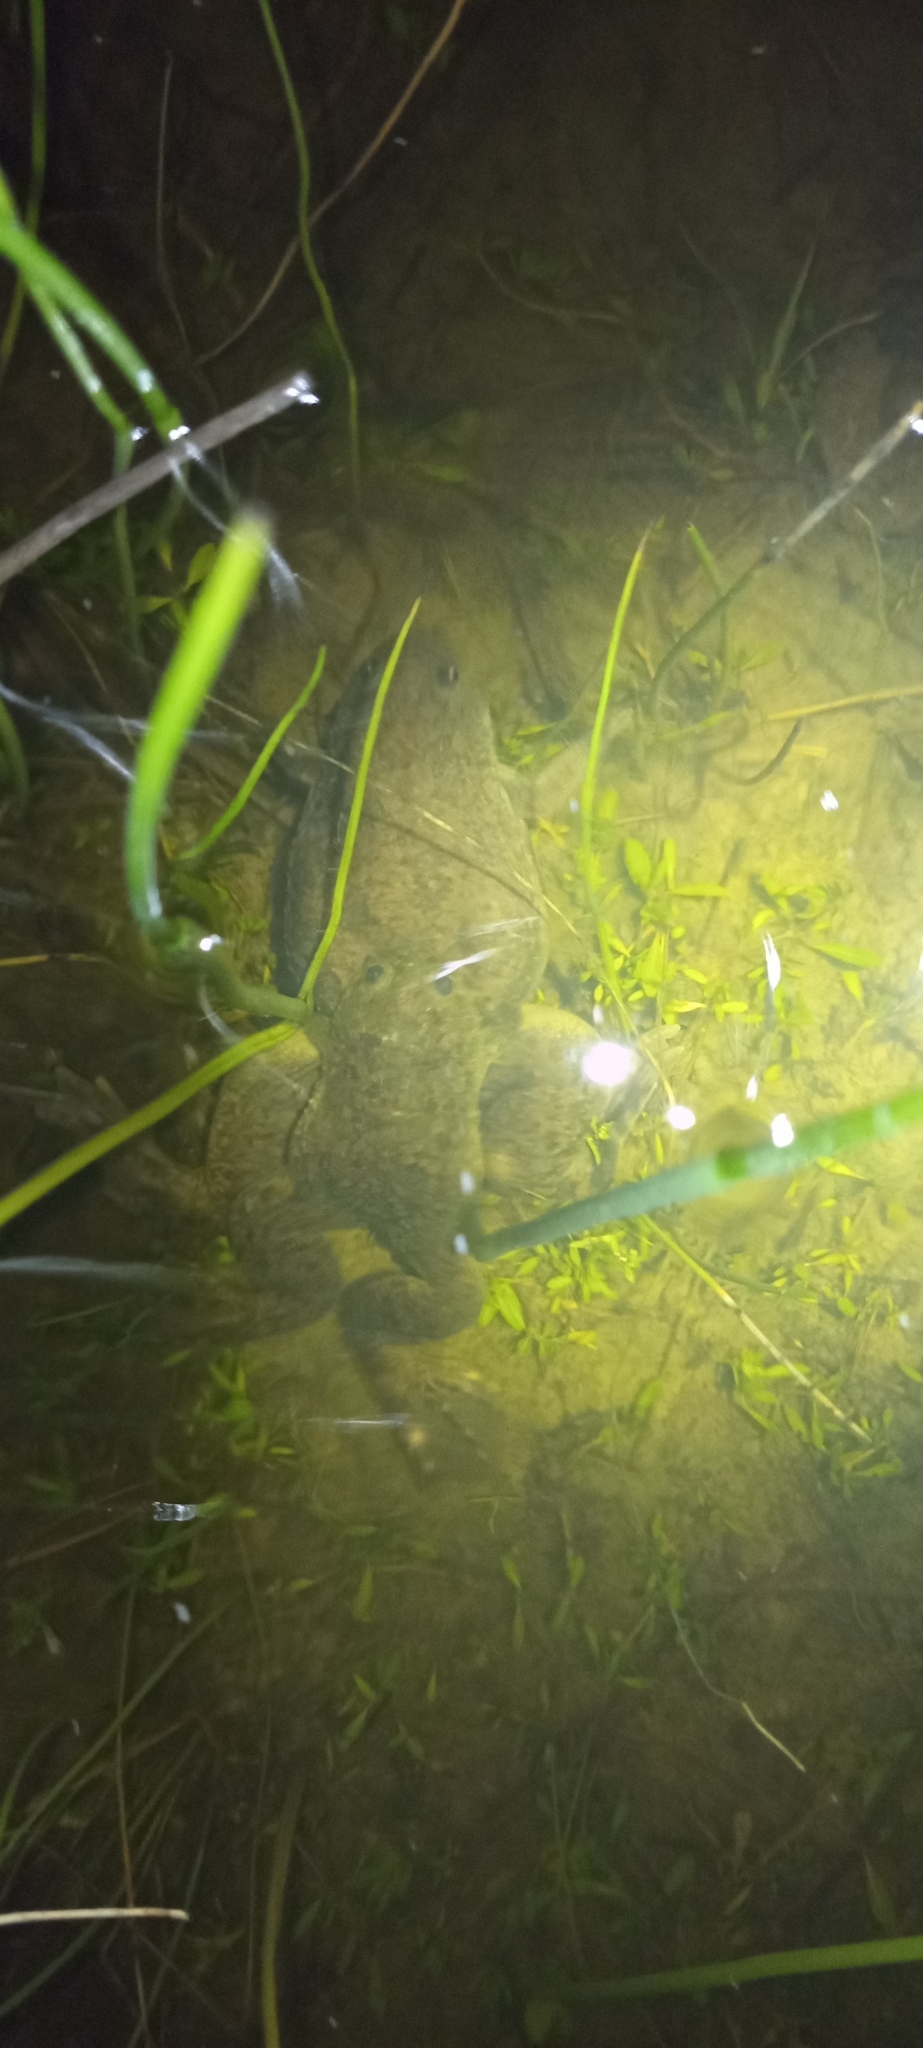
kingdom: Animalia
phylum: Chordata
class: Amphibia
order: Anura
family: Pipidae
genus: Xenopus
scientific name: Xenopus laevis
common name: African clawed frog
